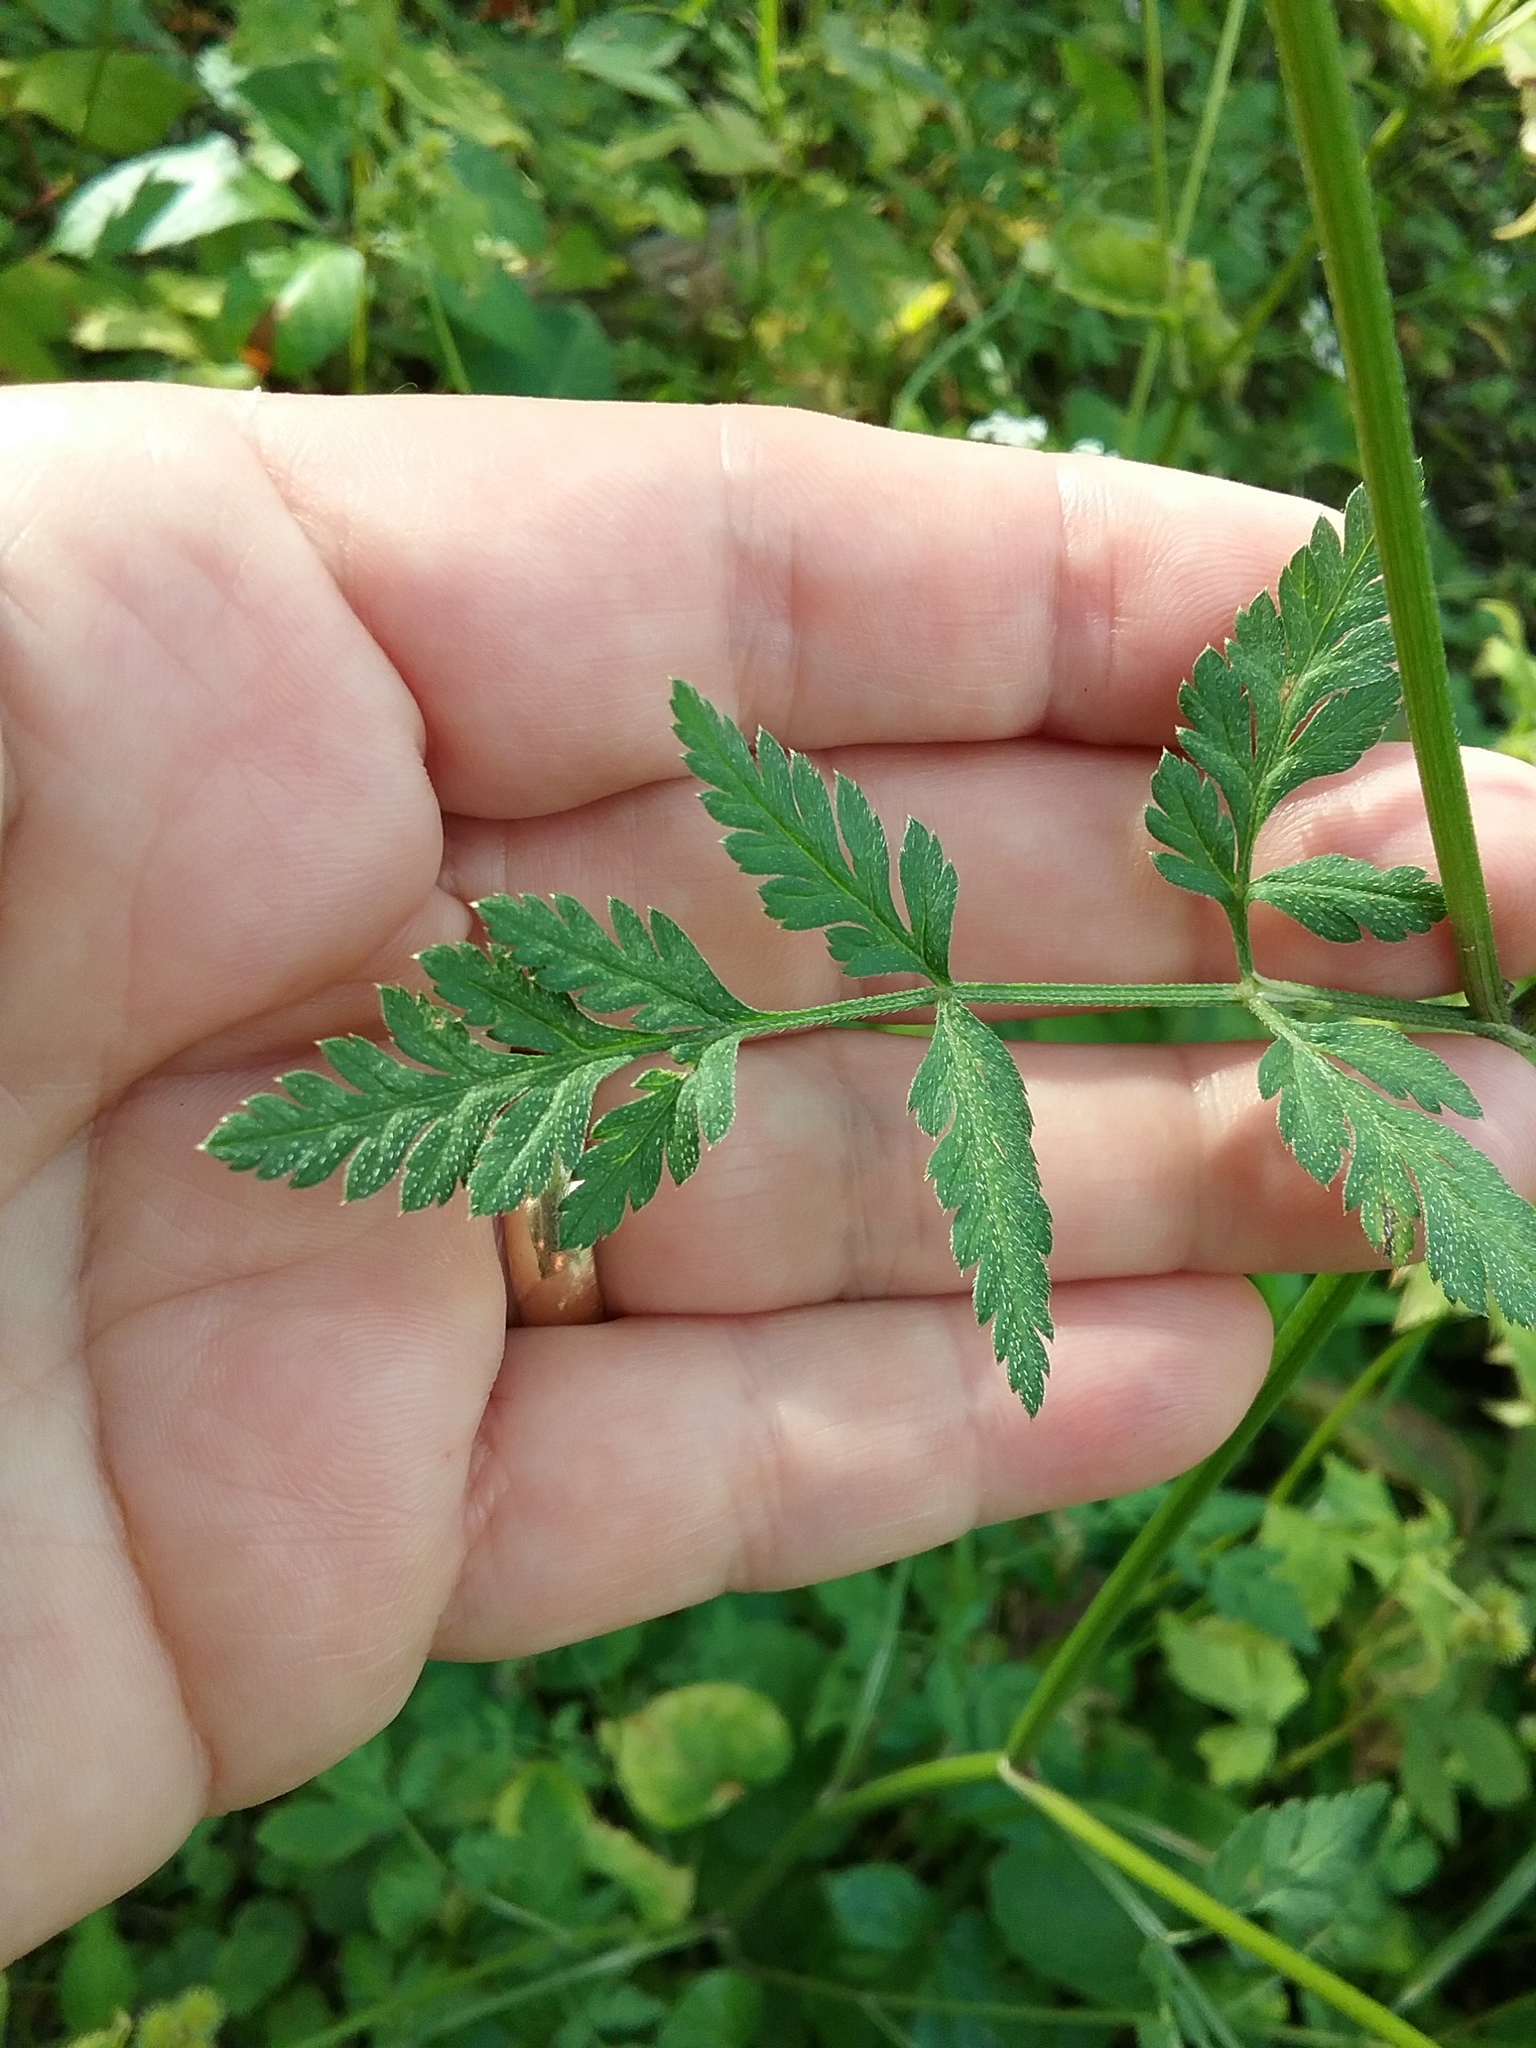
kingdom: Plantae
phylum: Tracheophyta
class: Magnoliopsida
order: Apiales
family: Apiaceae
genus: Torilis
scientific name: Torilis japonica
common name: Upright hedge-parsley
